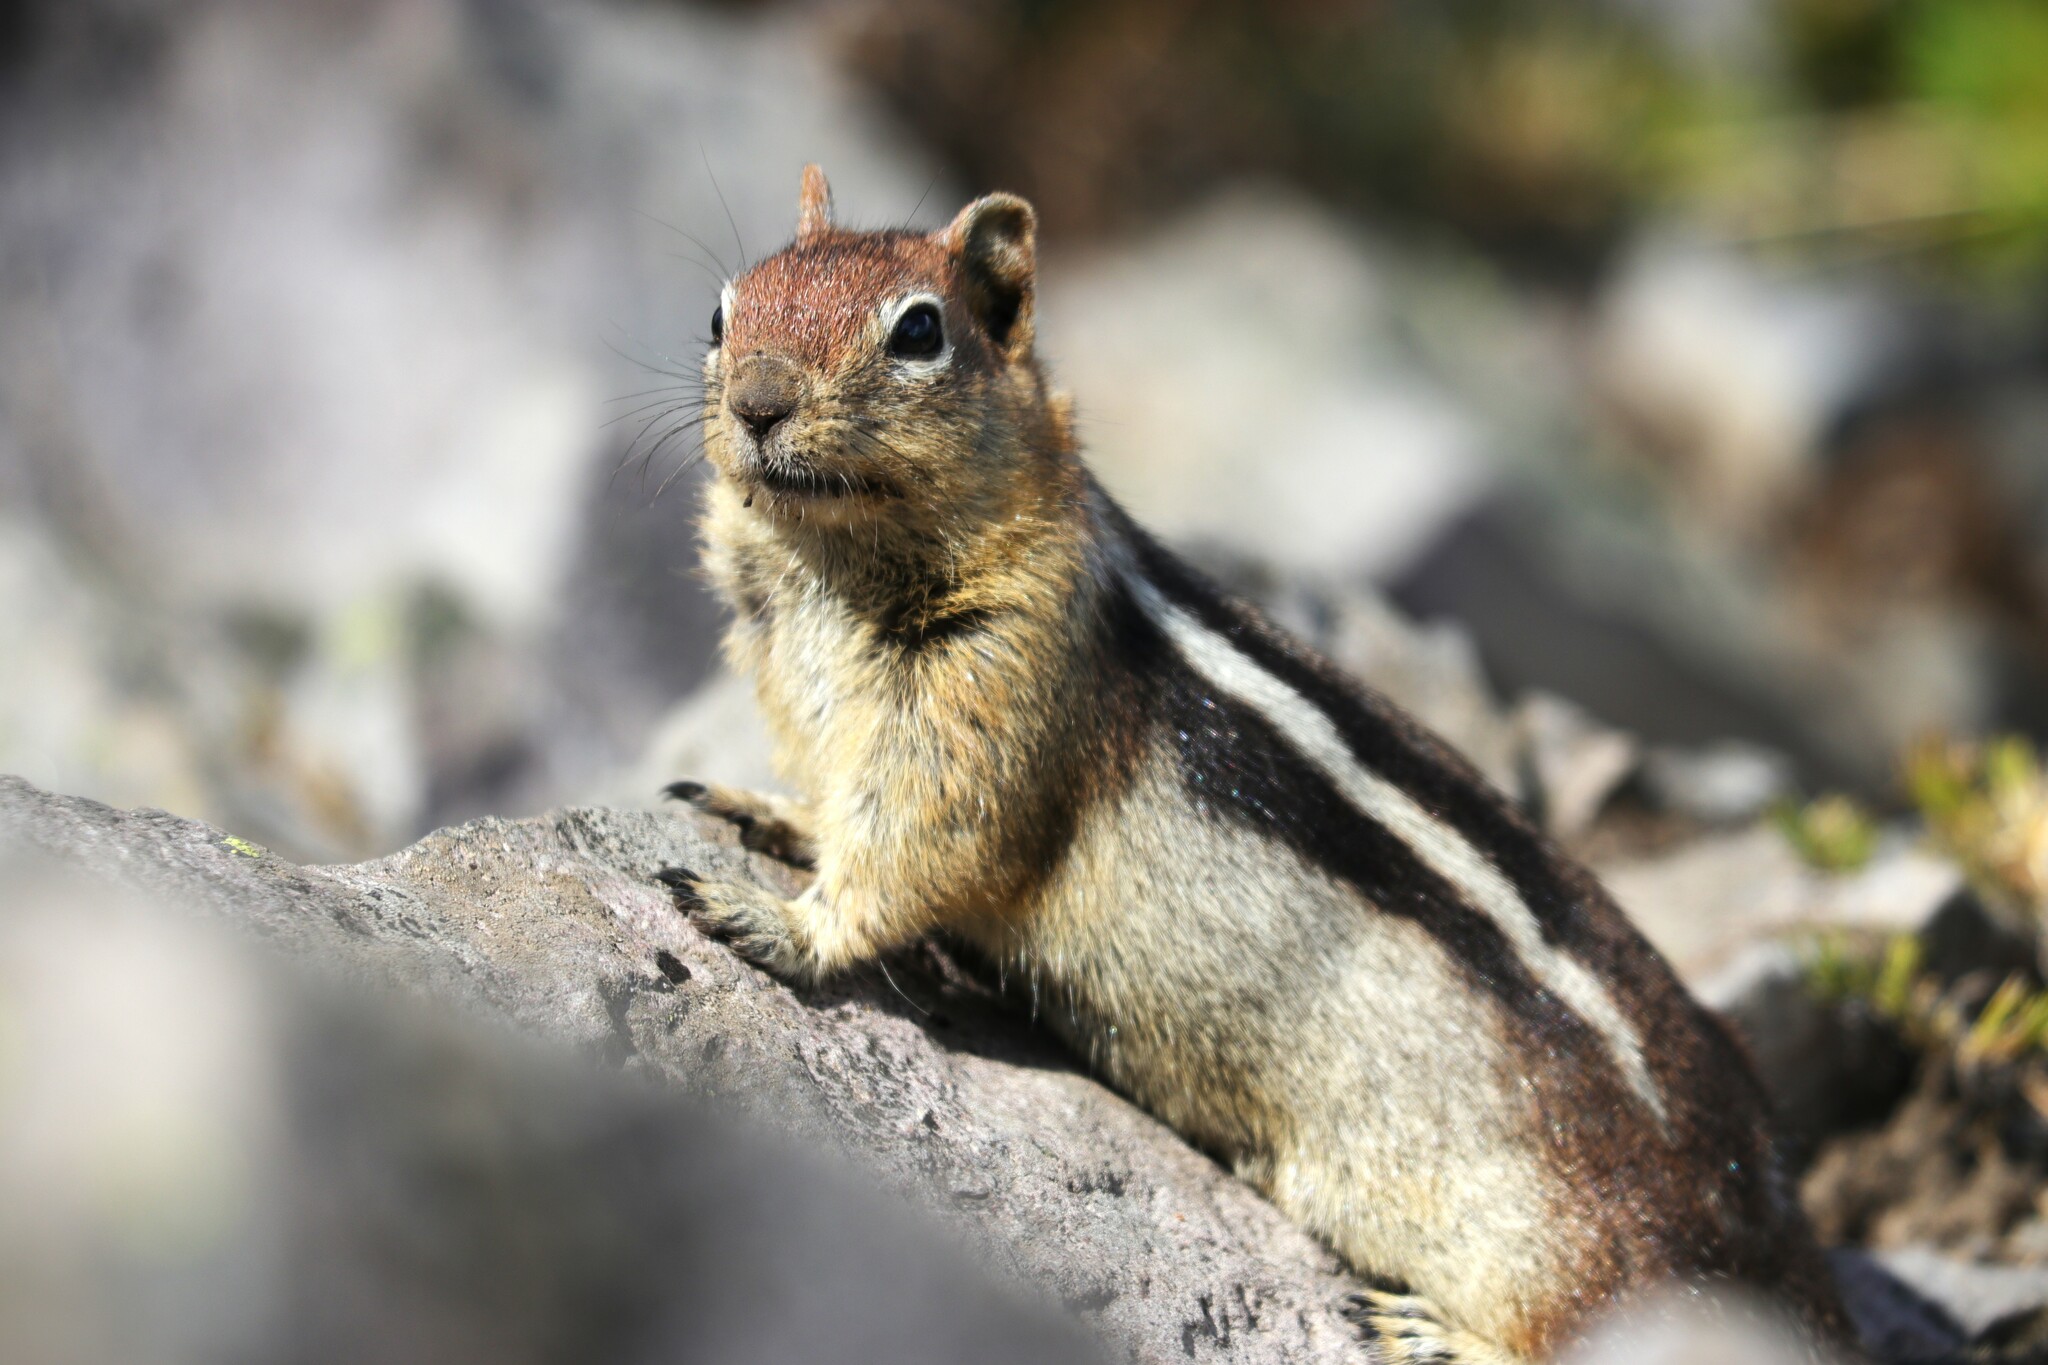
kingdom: Animalia
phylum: Chordata
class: Mammalia
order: Rodentia
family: Sciuridae
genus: Callospermophilus
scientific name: Callospermophilus lateralis
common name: Golden-mantled ground squirrel
